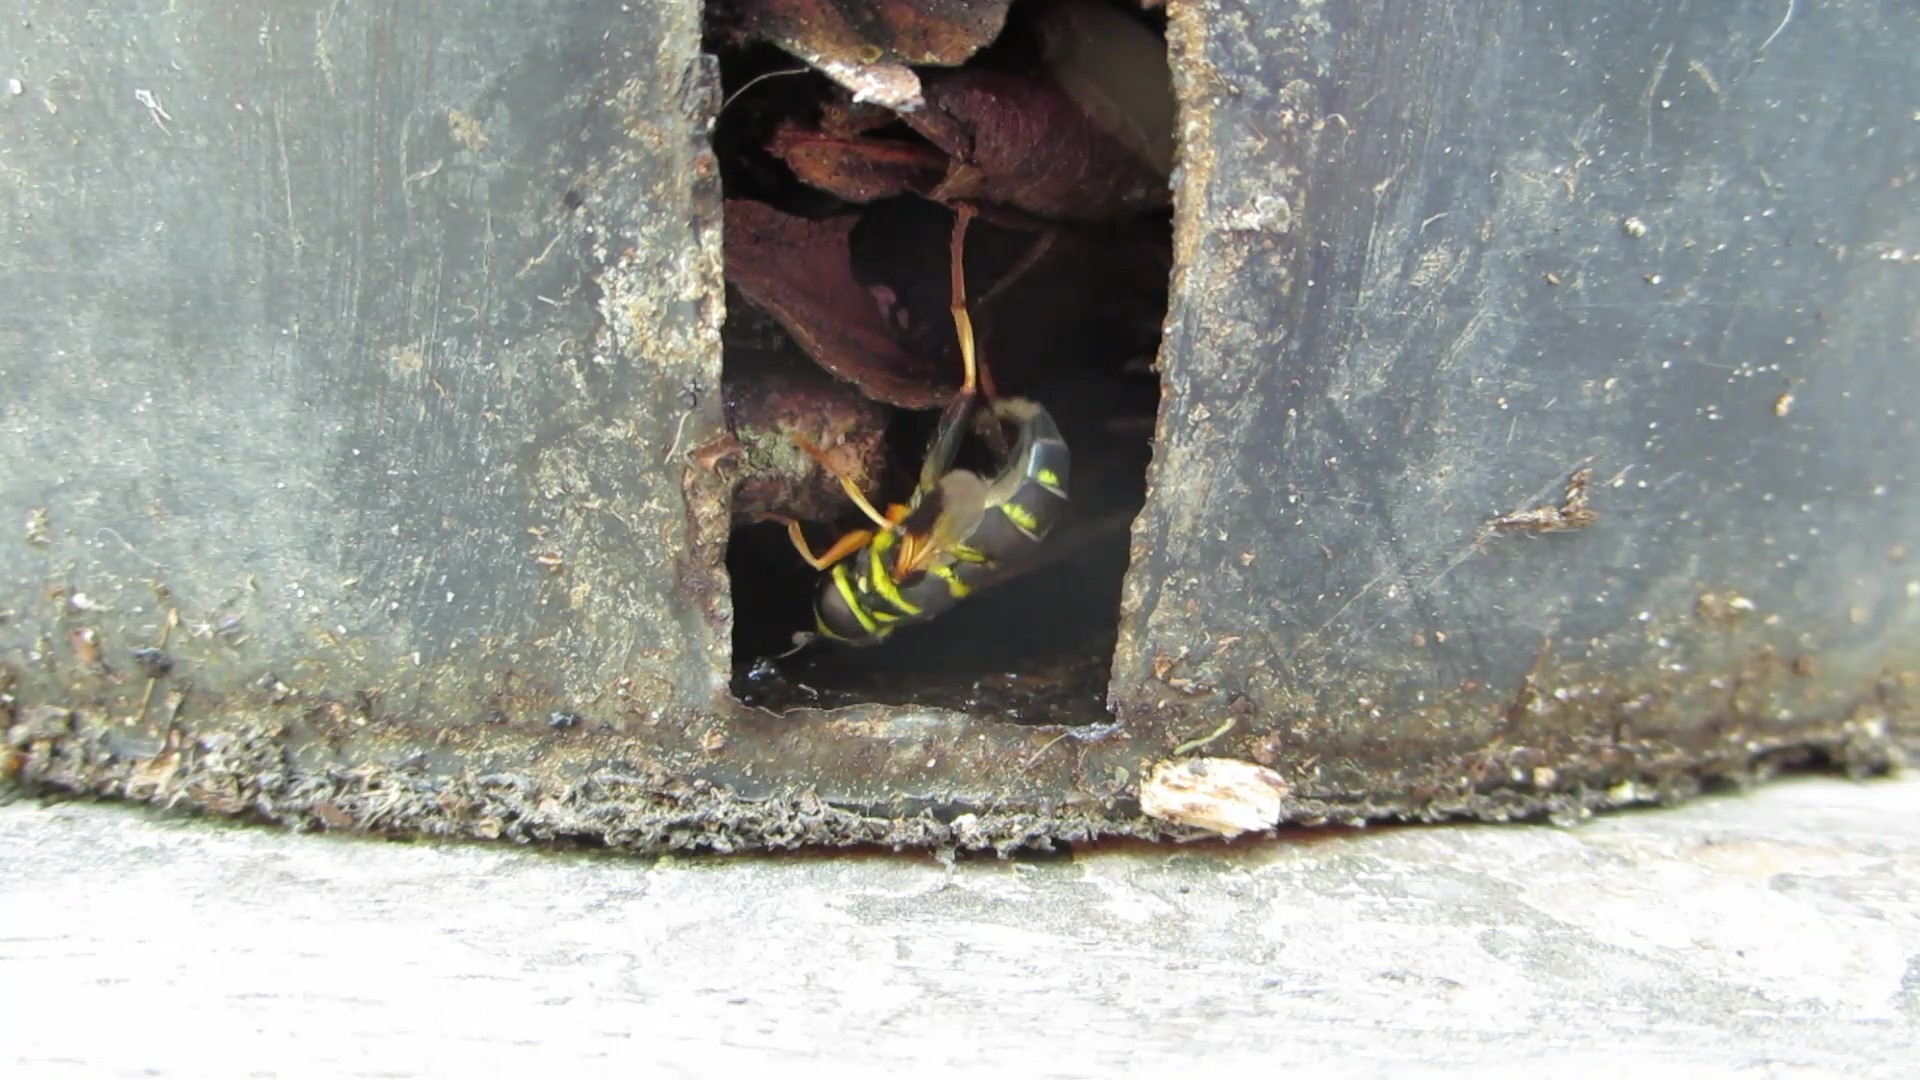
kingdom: Animalia
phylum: Arthropoda
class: Insecta
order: Diptera
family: Syrphidae
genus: Meromacrus
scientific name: Meromacrus acutus
